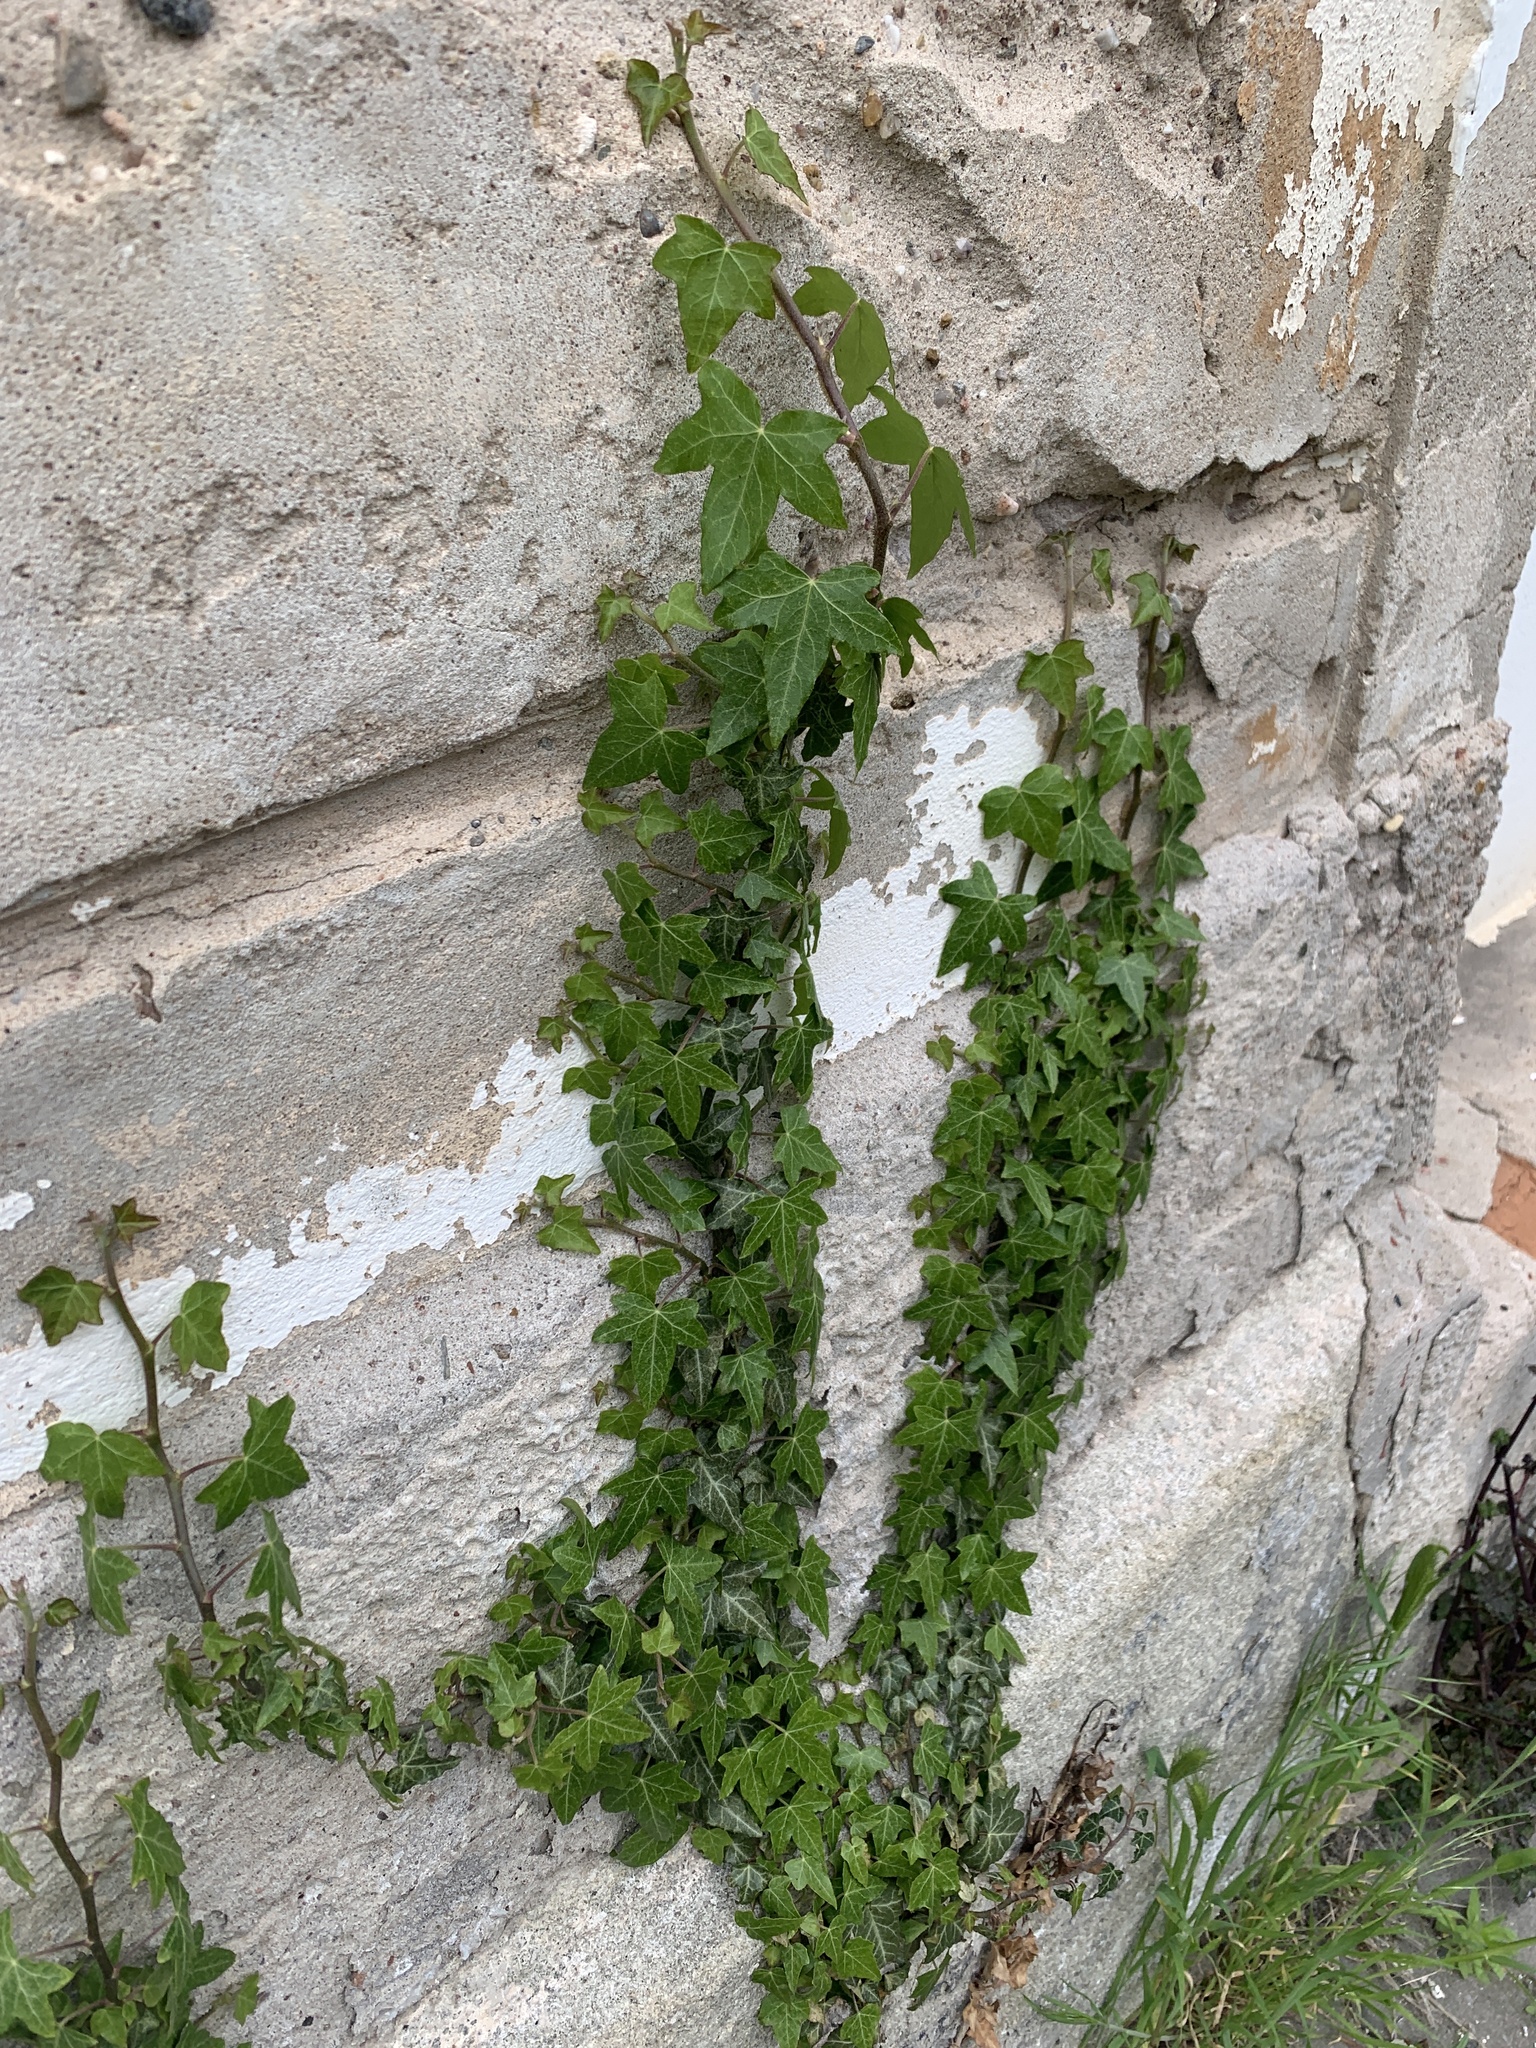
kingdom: Plantae
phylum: Tracheophyta
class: Magnoliopsida
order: Apiales
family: Araliaceae
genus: Hedera
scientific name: Hedera helix
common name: Ivy
